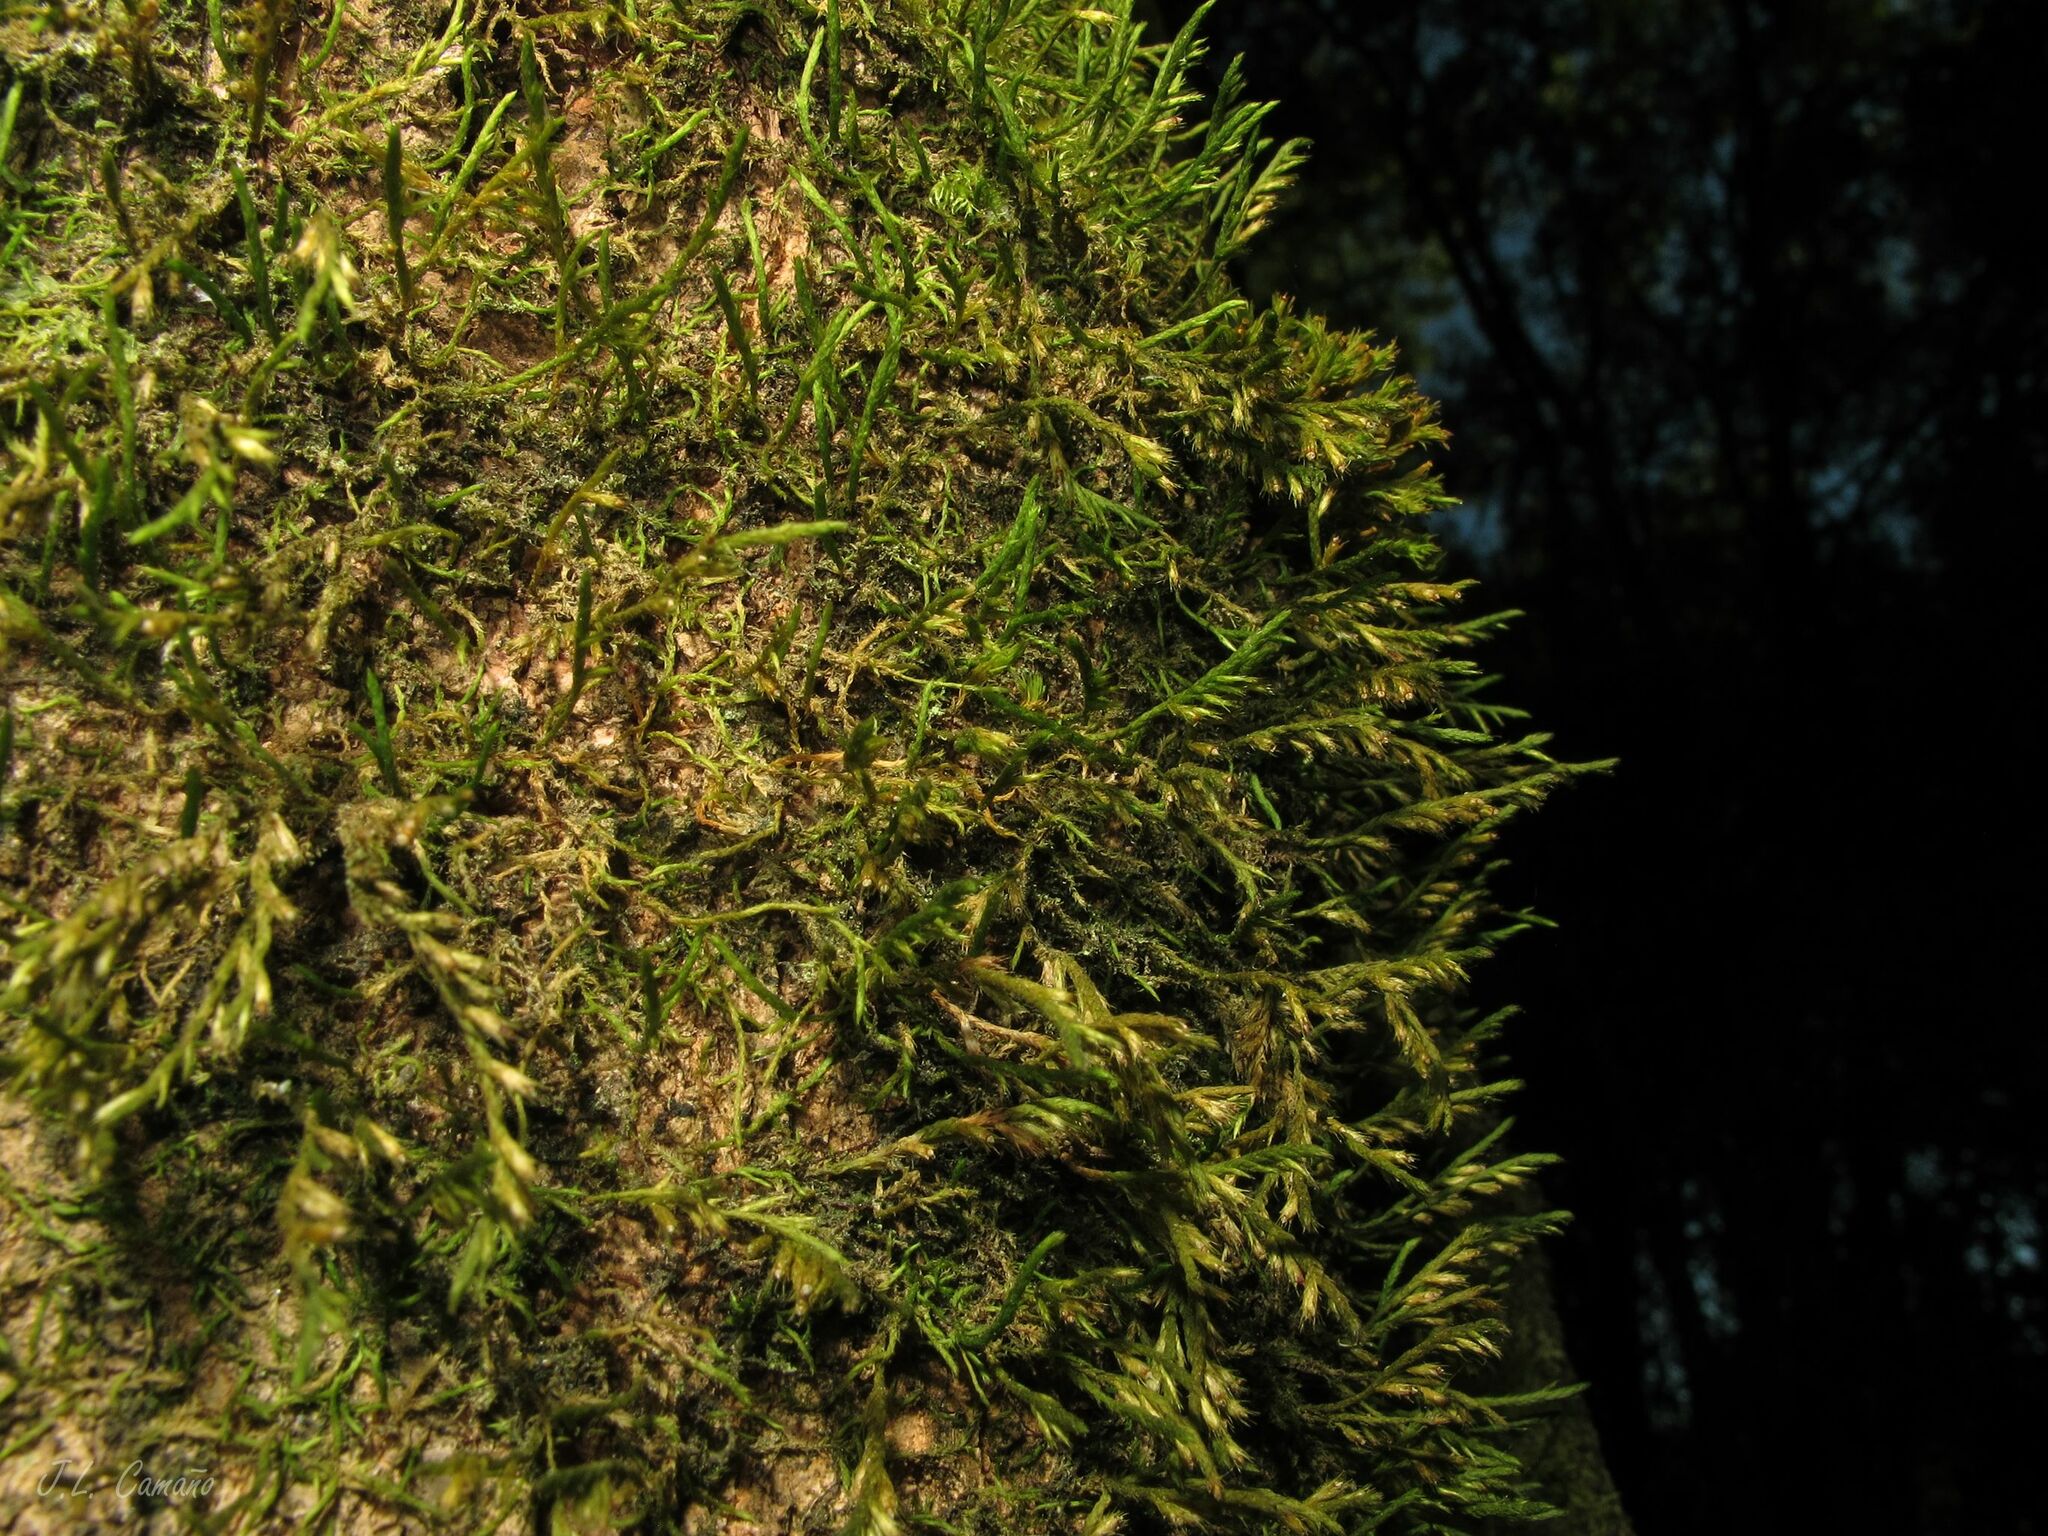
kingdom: Plantae
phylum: Bryophyta
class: Bryopsida
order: Hypnales
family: Cryphaeaceae
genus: Cryphaea
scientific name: Cryphaea heteromalla
